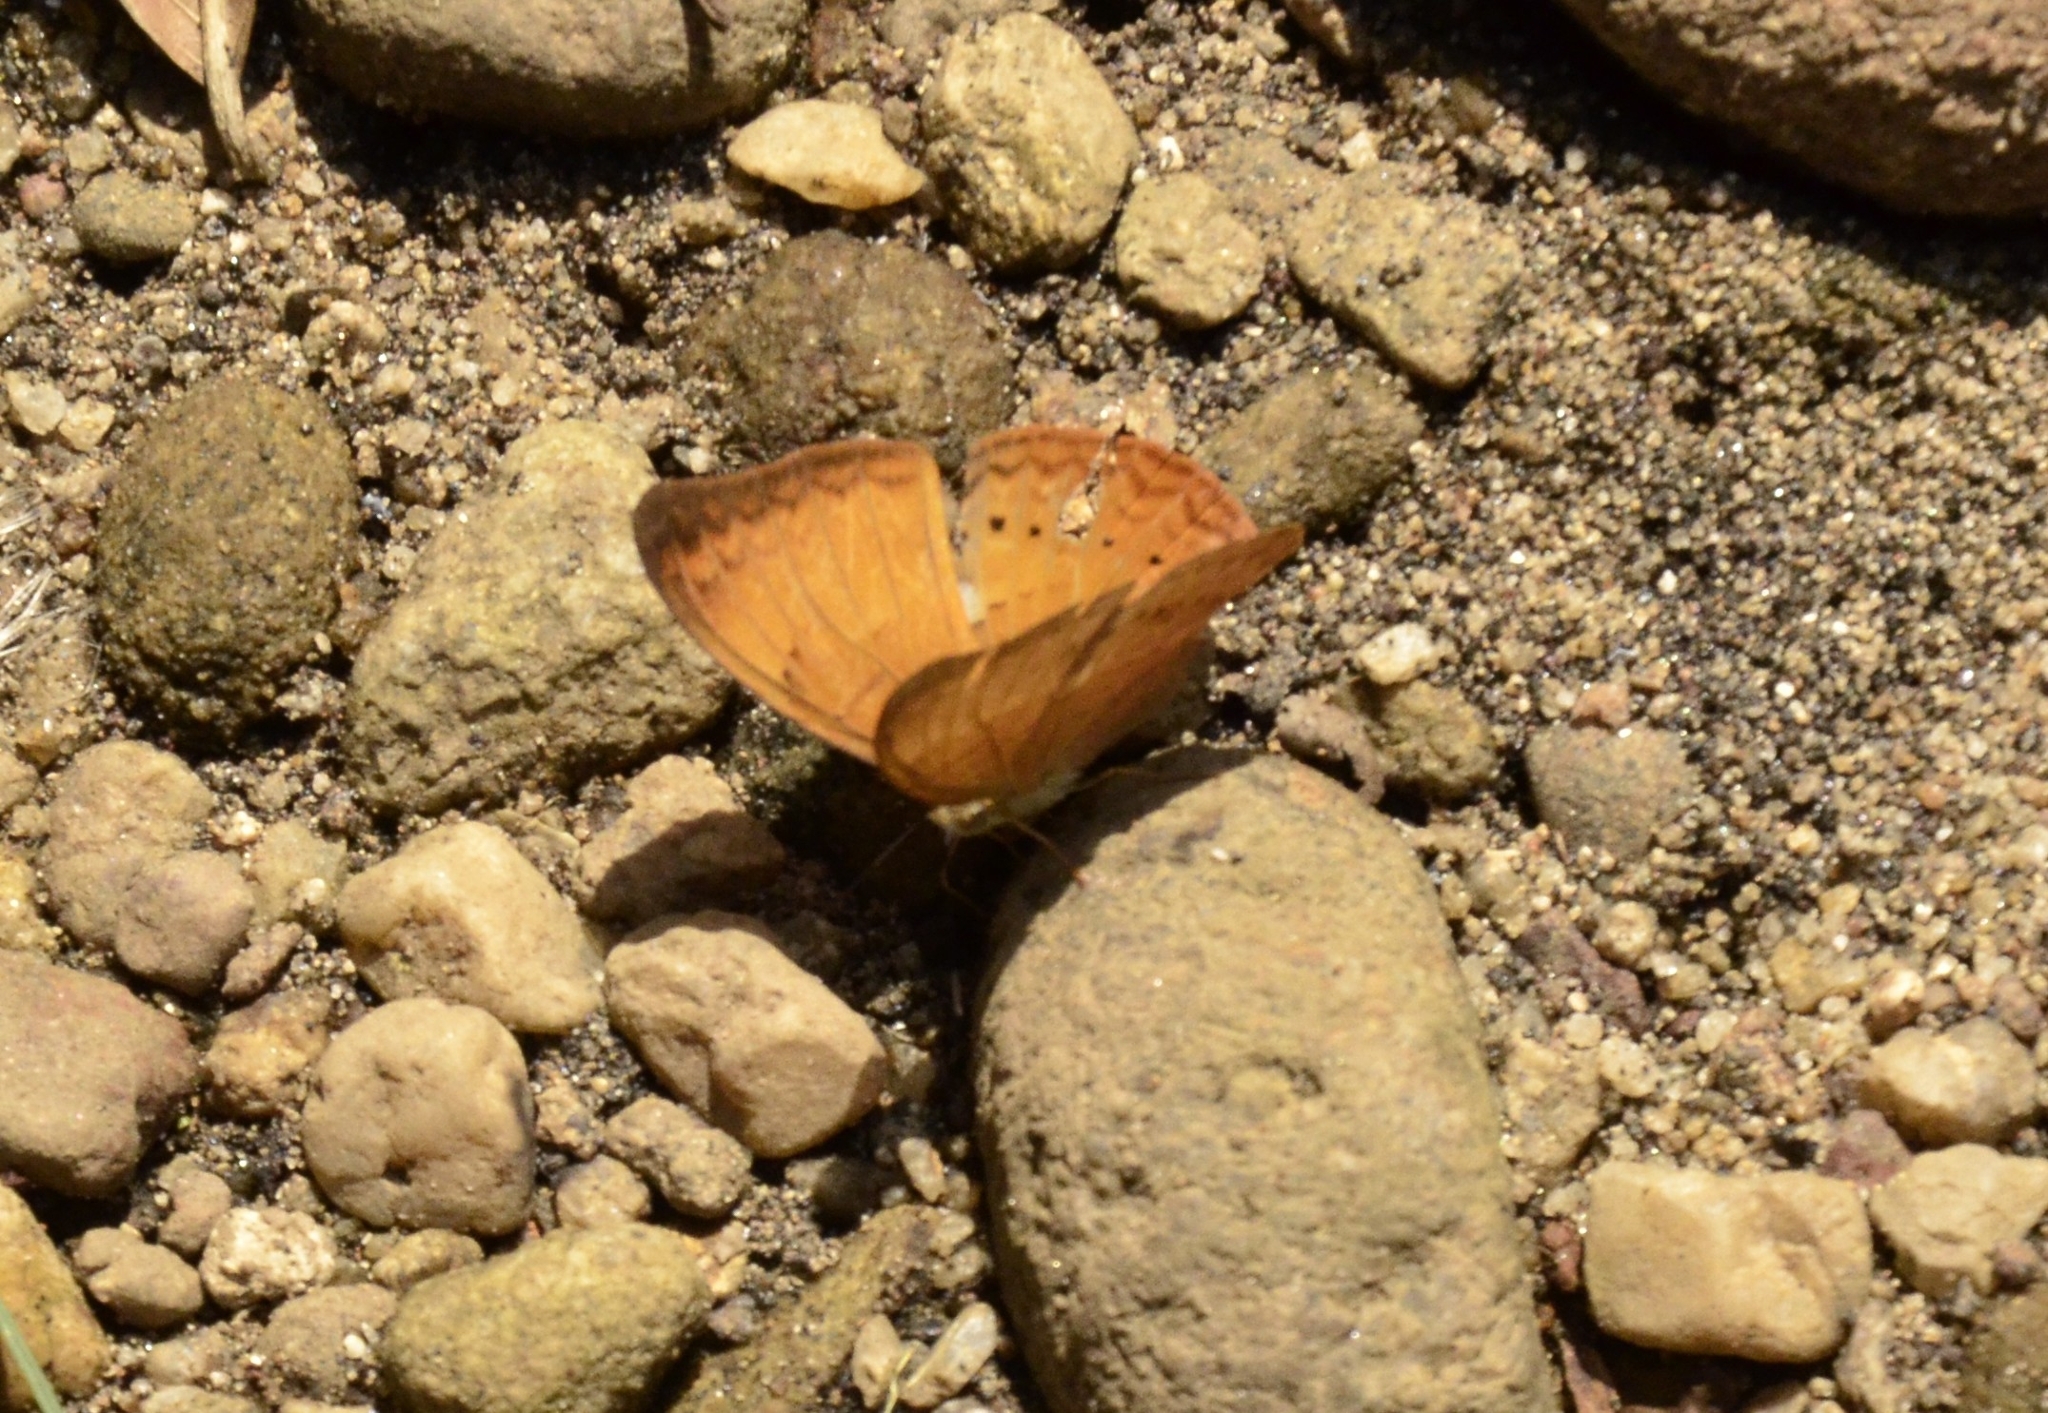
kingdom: Animalia
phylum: Arthropoda
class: Insecta
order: Lepidoptera
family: Nymphalidae
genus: Cirrochroa
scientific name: Cirrochroa thais
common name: Tamil yeoman
